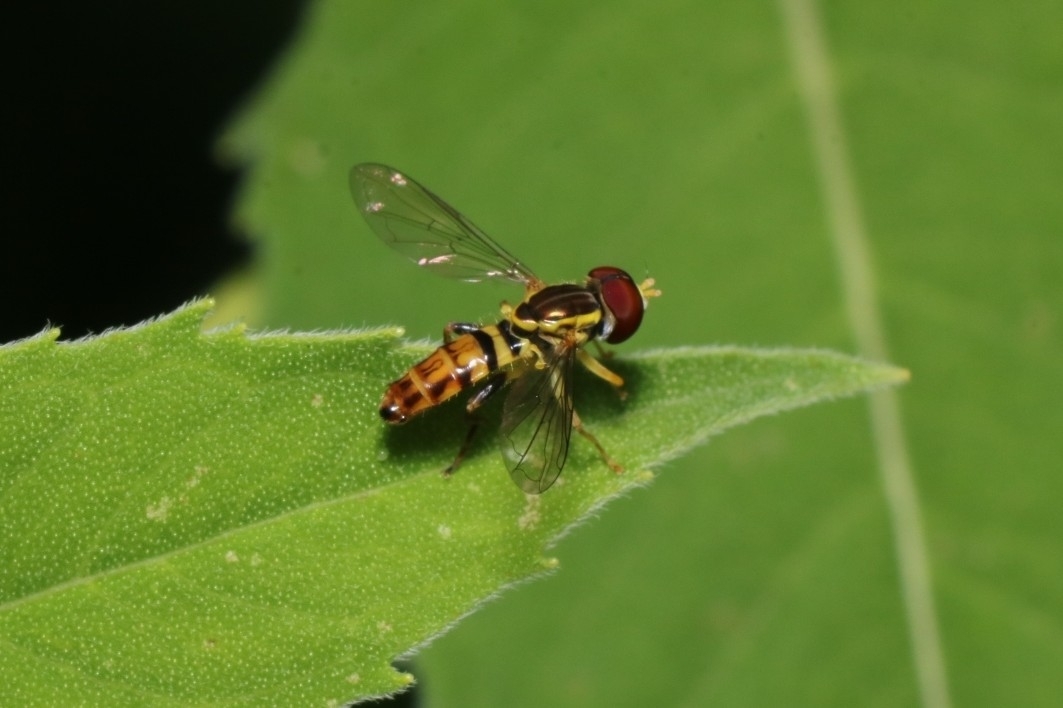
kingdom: Animalia
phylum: Arthropoda
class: Insecta
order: Diptera
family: Syrphidae
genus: Toxomerus
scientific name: Toxomerus geminatus
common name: Eastern calligrapher
